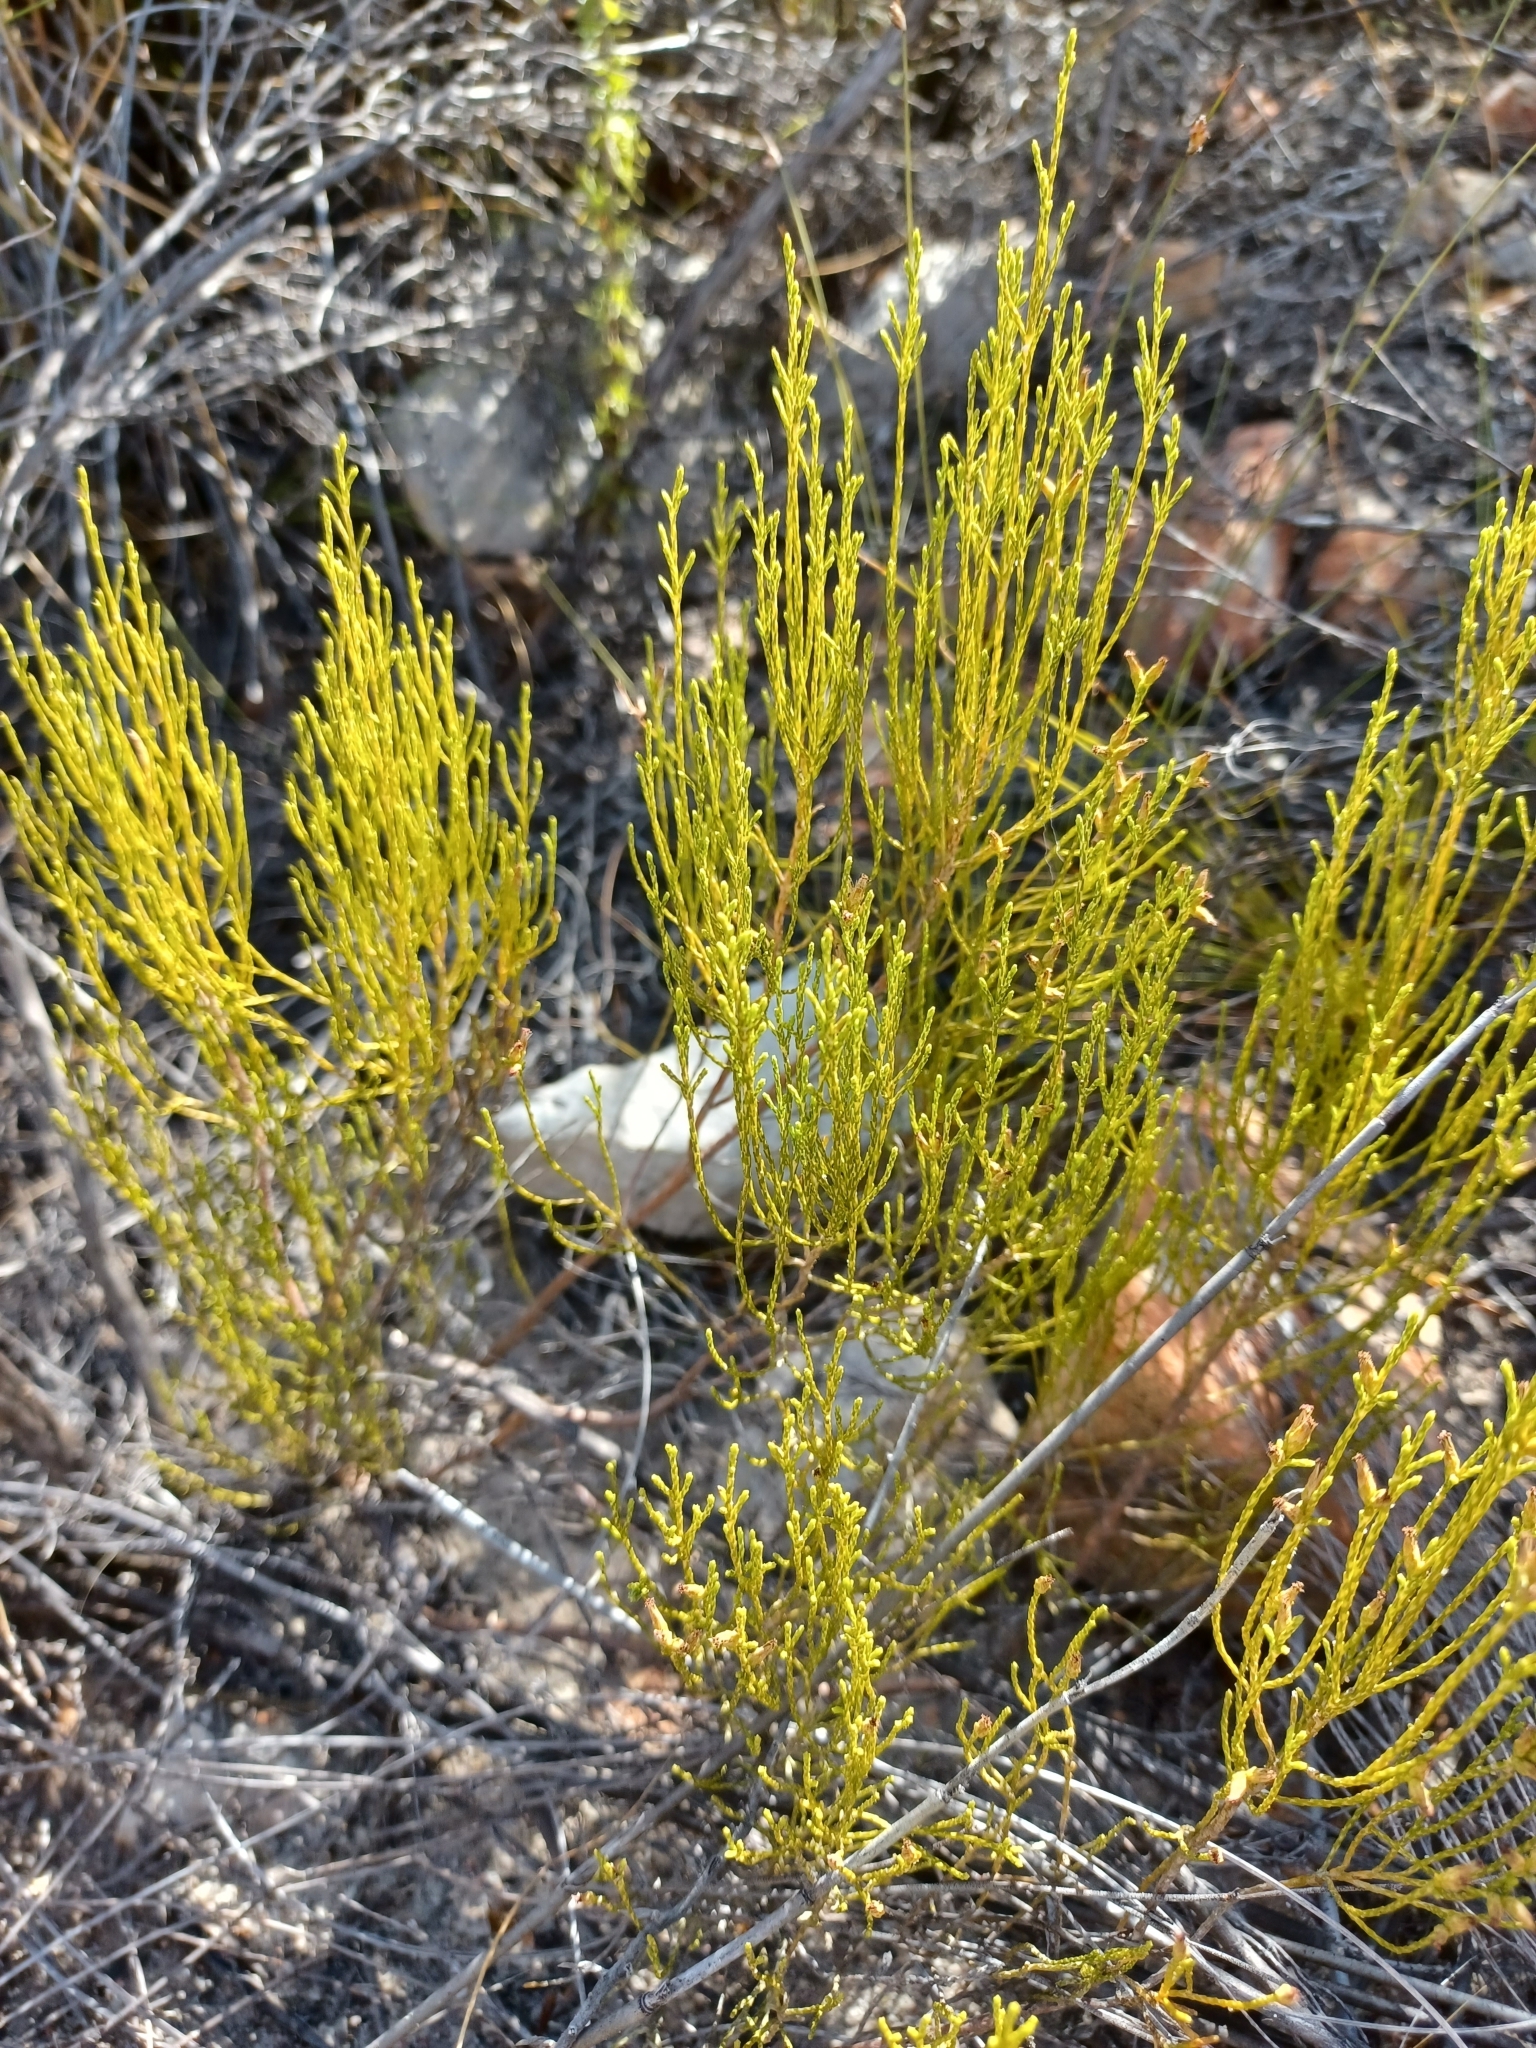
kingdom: Plantae
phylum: Tracheophyta
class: Magnoliopsida
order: Asterales
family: Asteraceae
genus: Dicerothamnus
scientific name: Dicerothamnus adpressus
